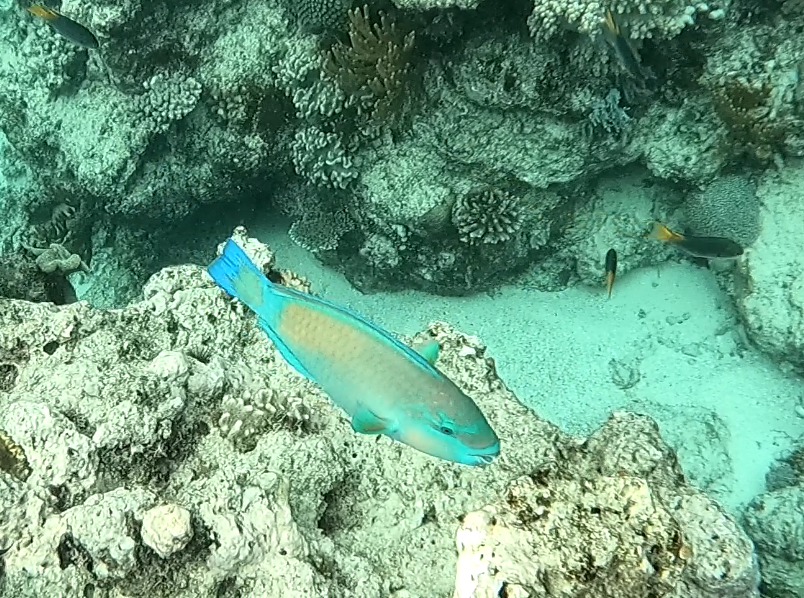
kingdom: Animalia
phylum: Chordata
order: Perciformes
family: Scaridae
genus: Chlorurus
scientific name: Chlorurus spilurus
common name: Bullethead parrotfish
